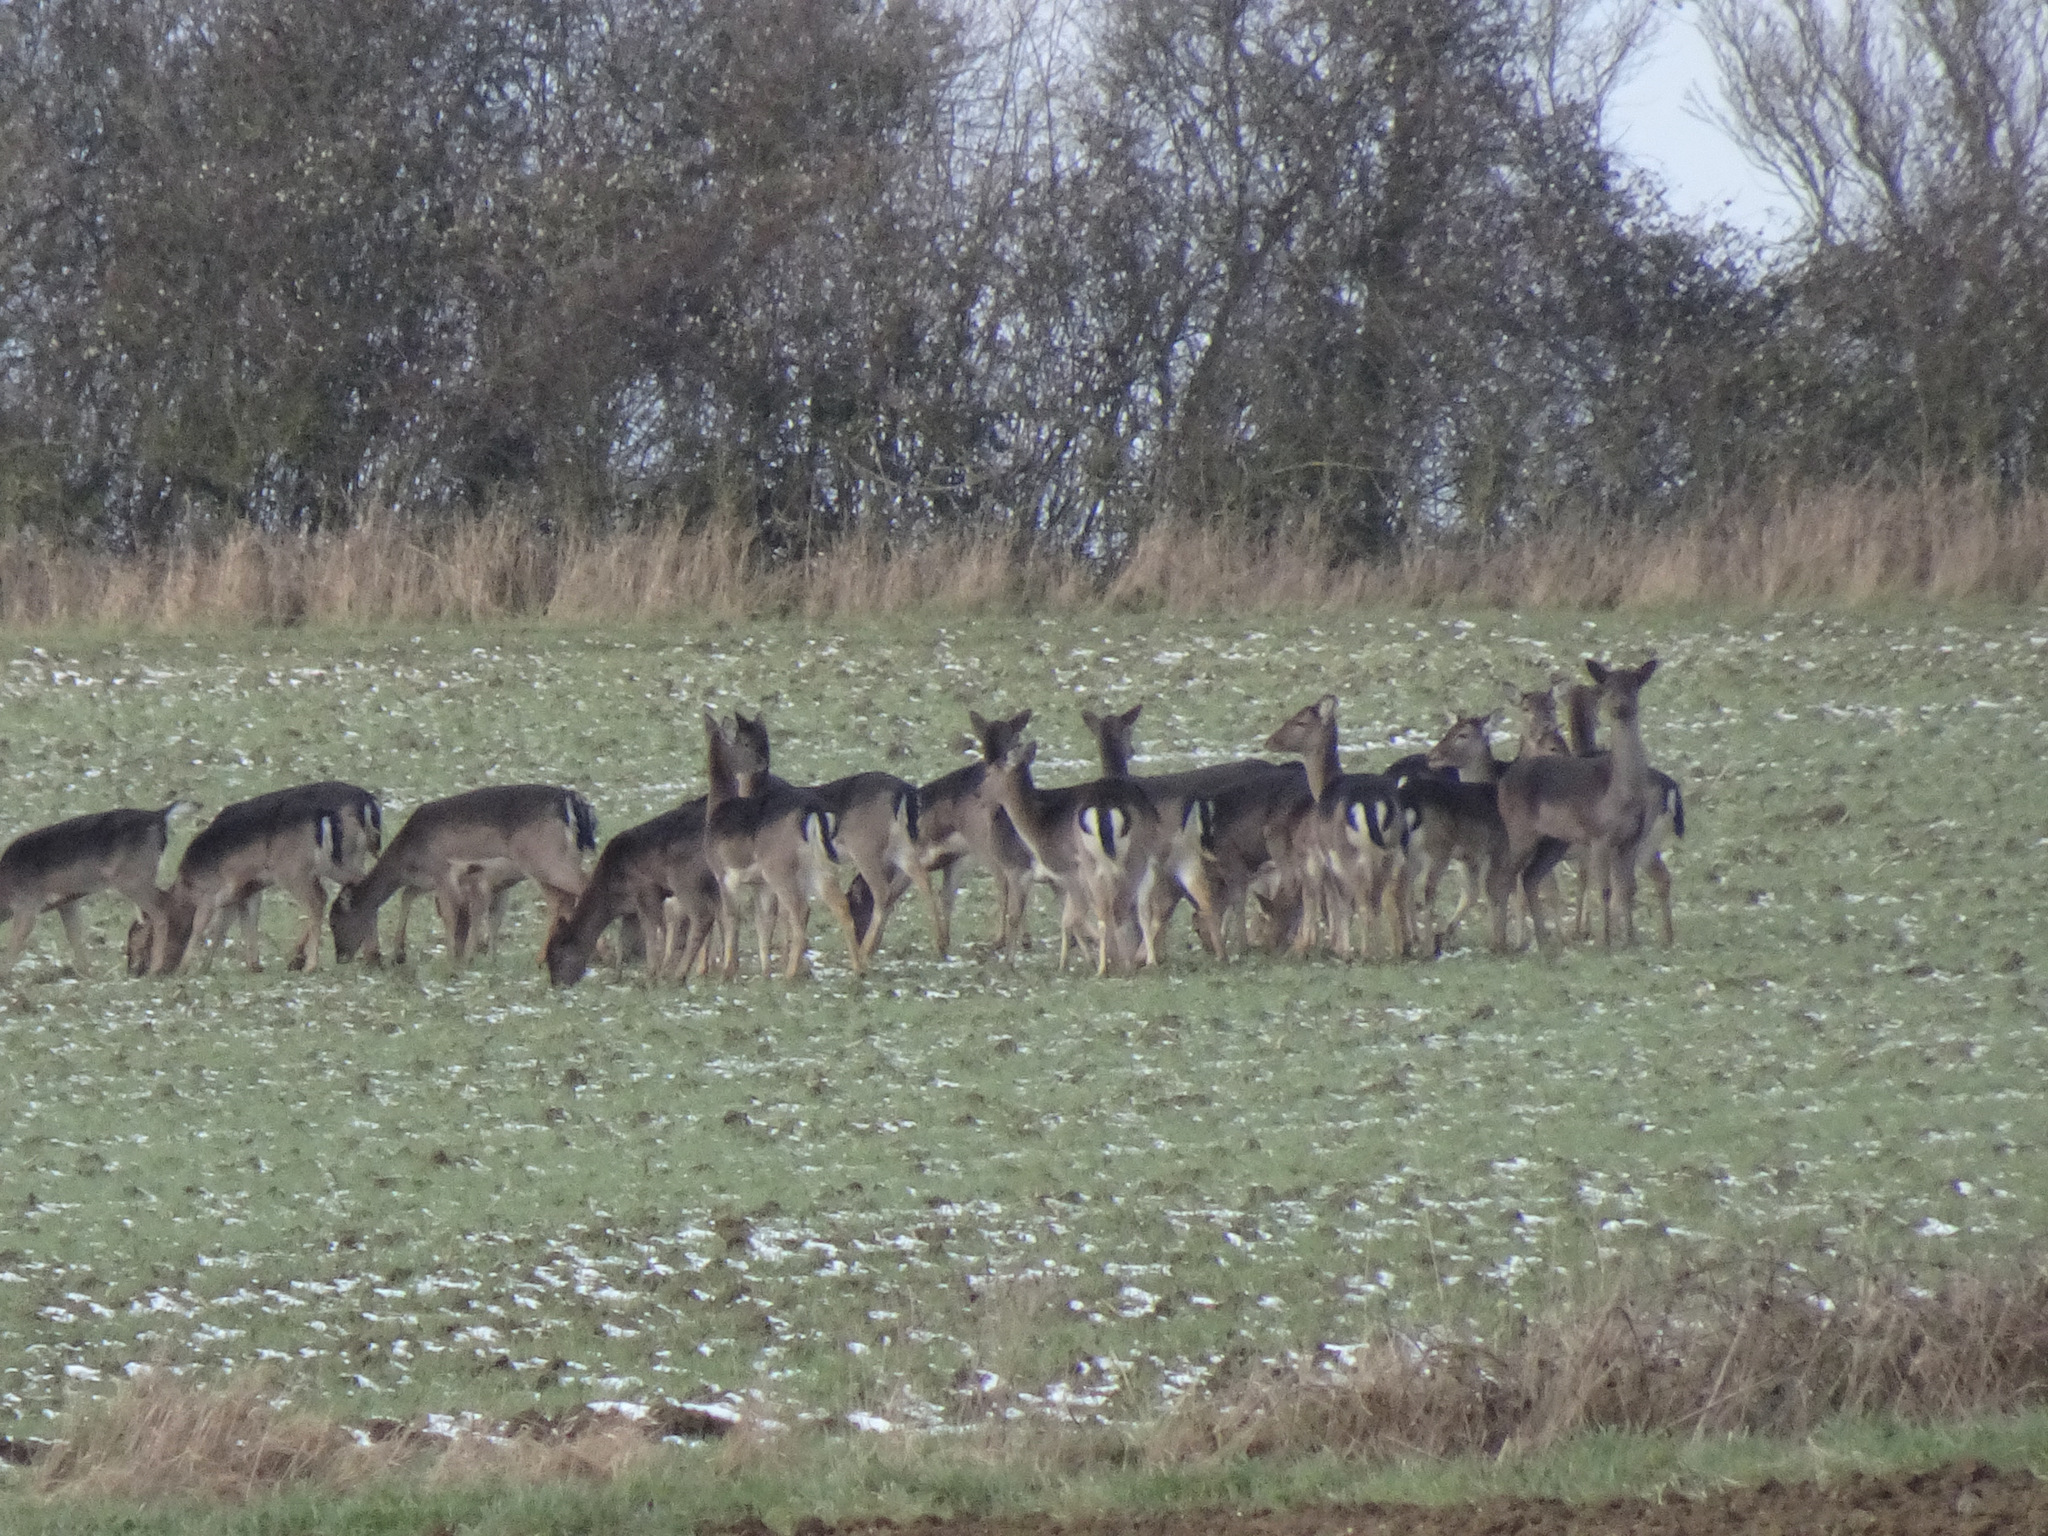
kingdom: Animalia
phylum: Chordata
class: Mammalia
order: Artiodactyla
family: Cervidae
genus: Dama
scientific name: Dama dama
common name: Fallow deer
